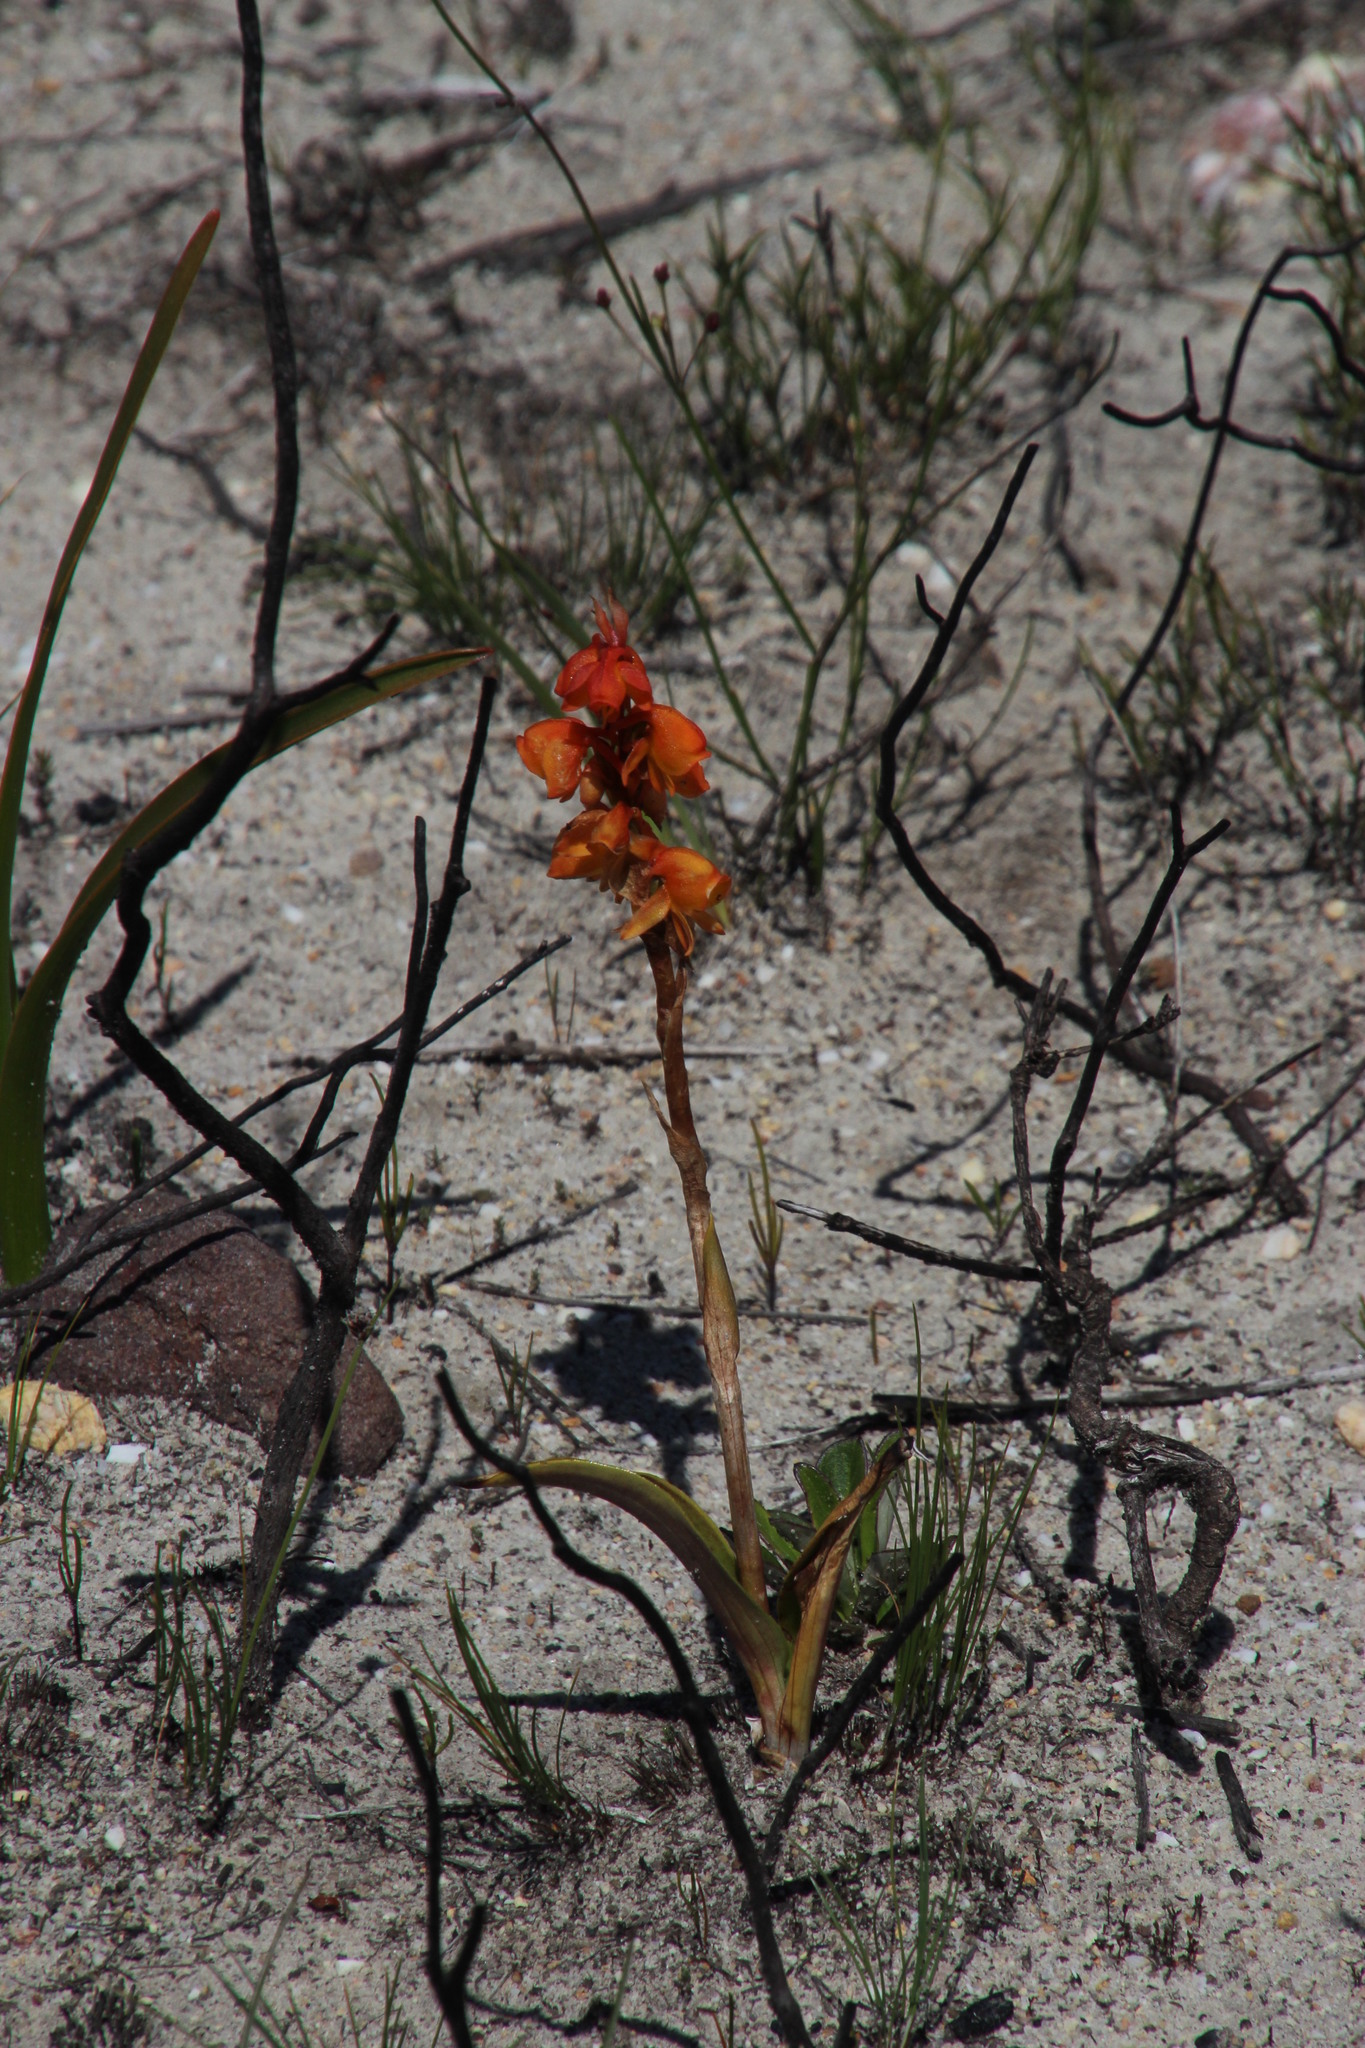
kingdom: Plantae
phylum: Tracheophyta
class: Liliopsida
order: Asparagales
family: Orchidaceae
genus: Satyrium
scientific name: Satyrium coriifolium
